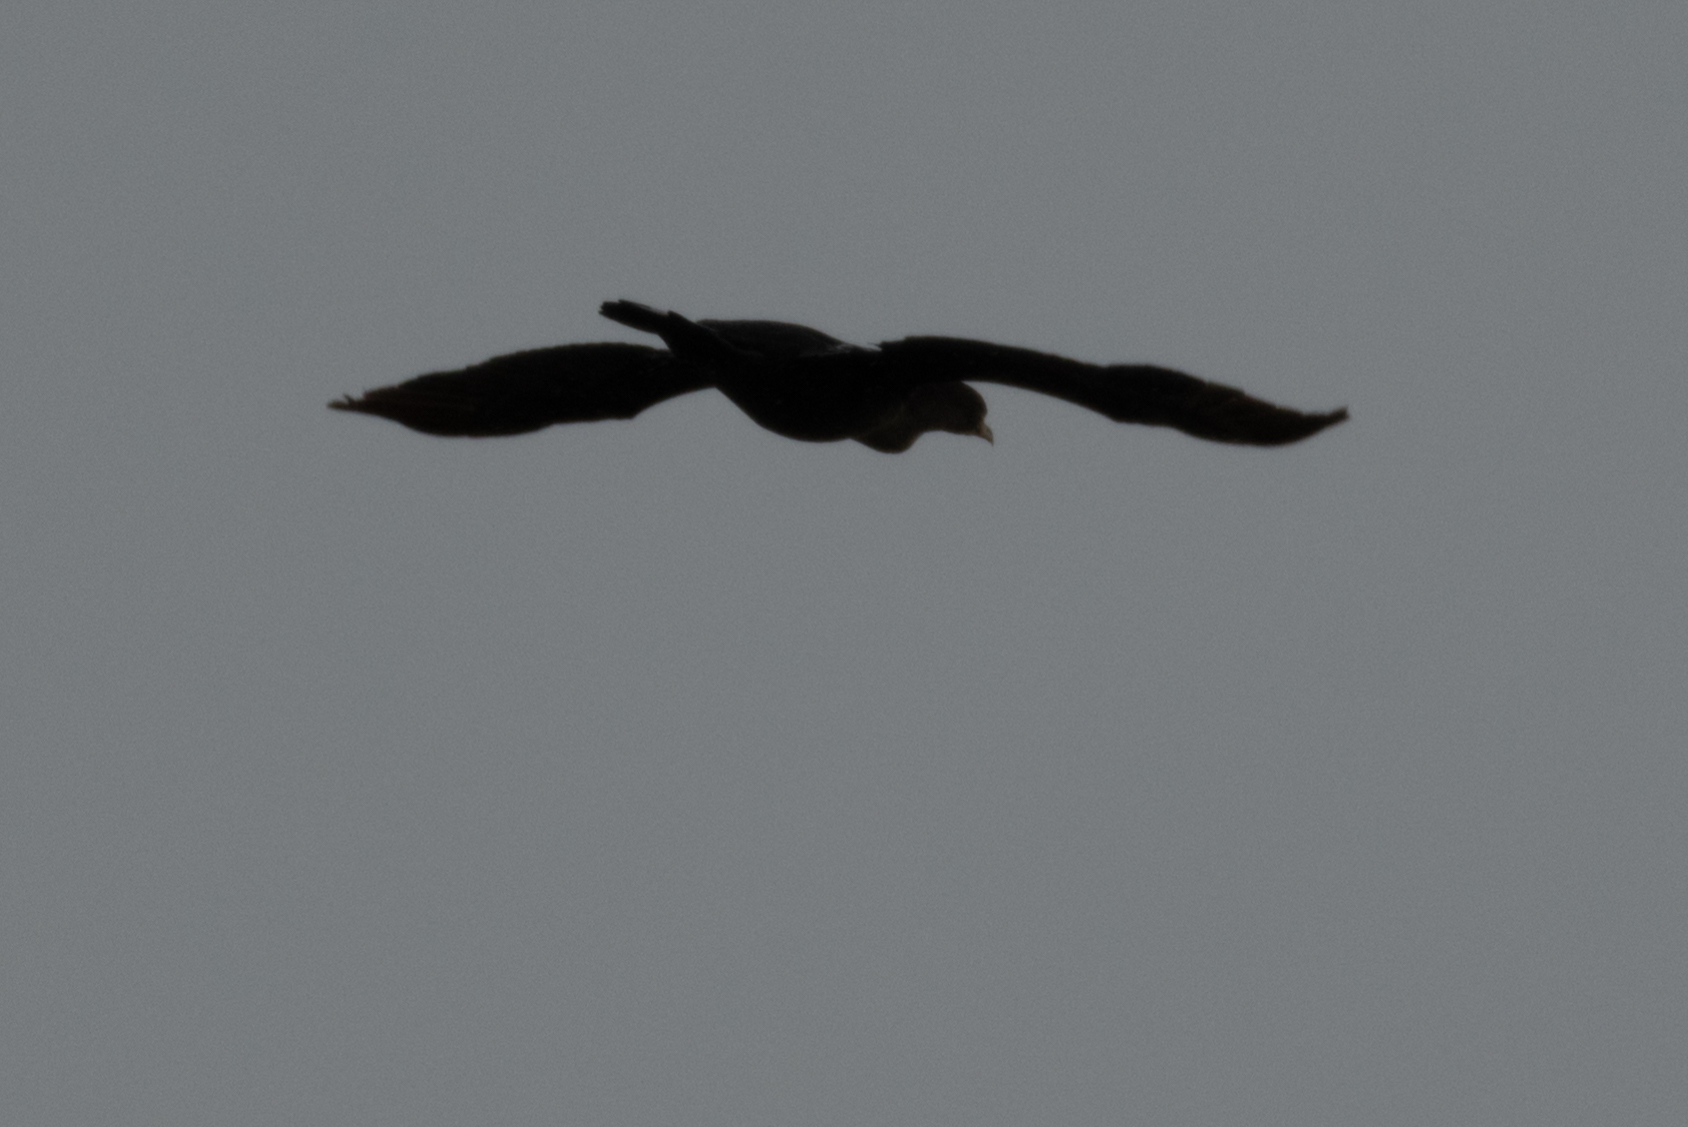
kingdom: Animalia
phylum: Chordata
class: Aves
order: Suliformes
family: Phalacrocoracidae
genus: Phalacrocorax
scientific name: Phalacrocorax auritus
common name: Double-crested cormorant
